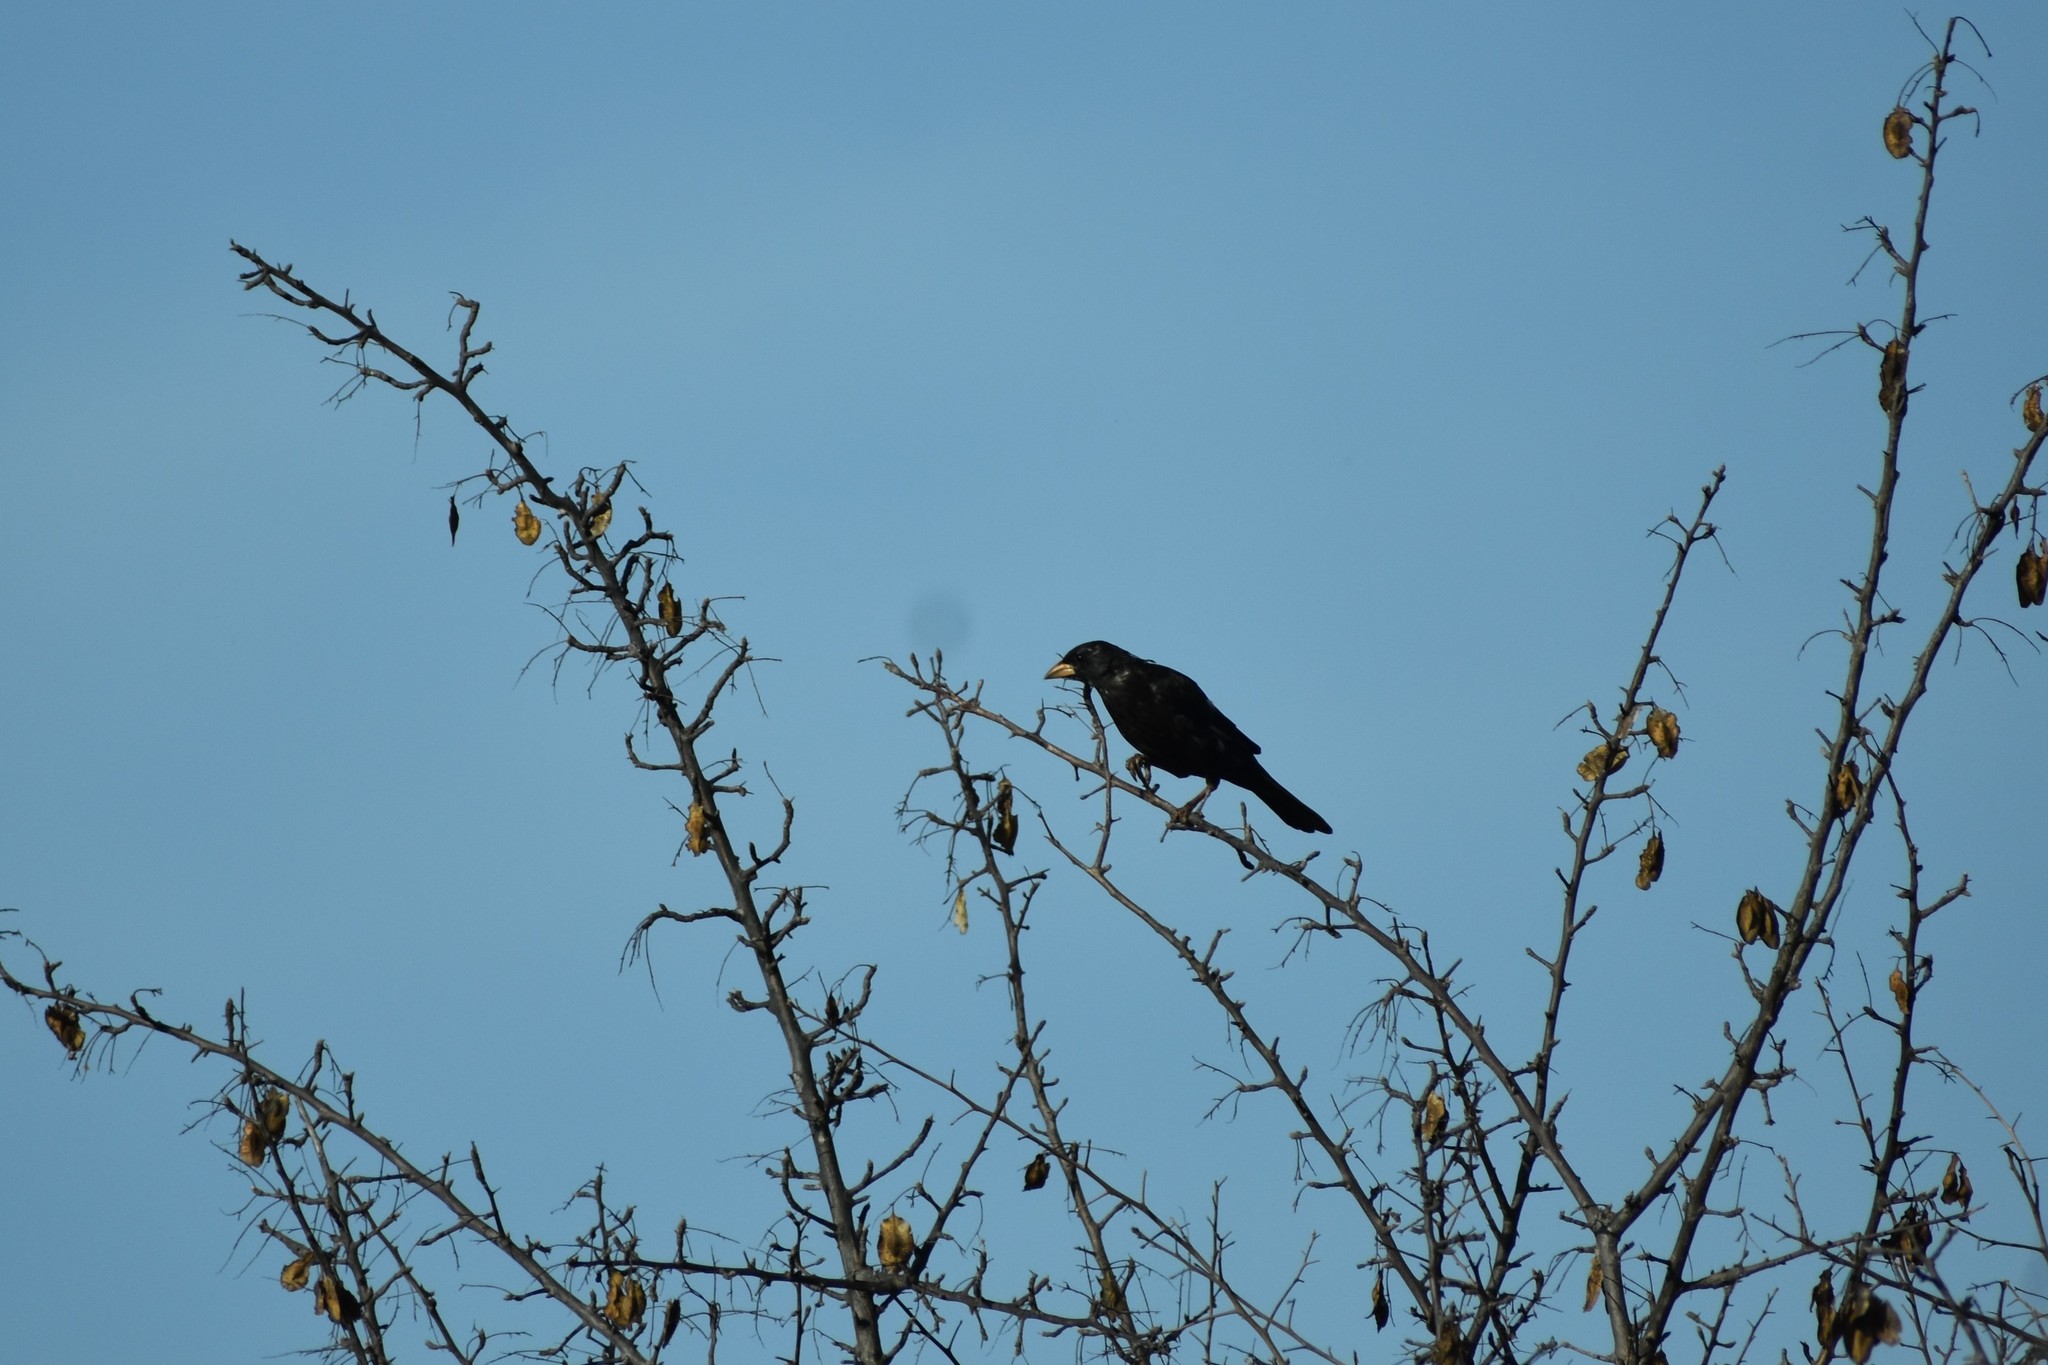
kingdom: Animalia
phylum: Chordata
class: Aves
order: Passeriformes
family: Ploceidae
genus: Bubalornis
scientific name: Bubalornis niger
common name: Red-billed buffalo weaver
